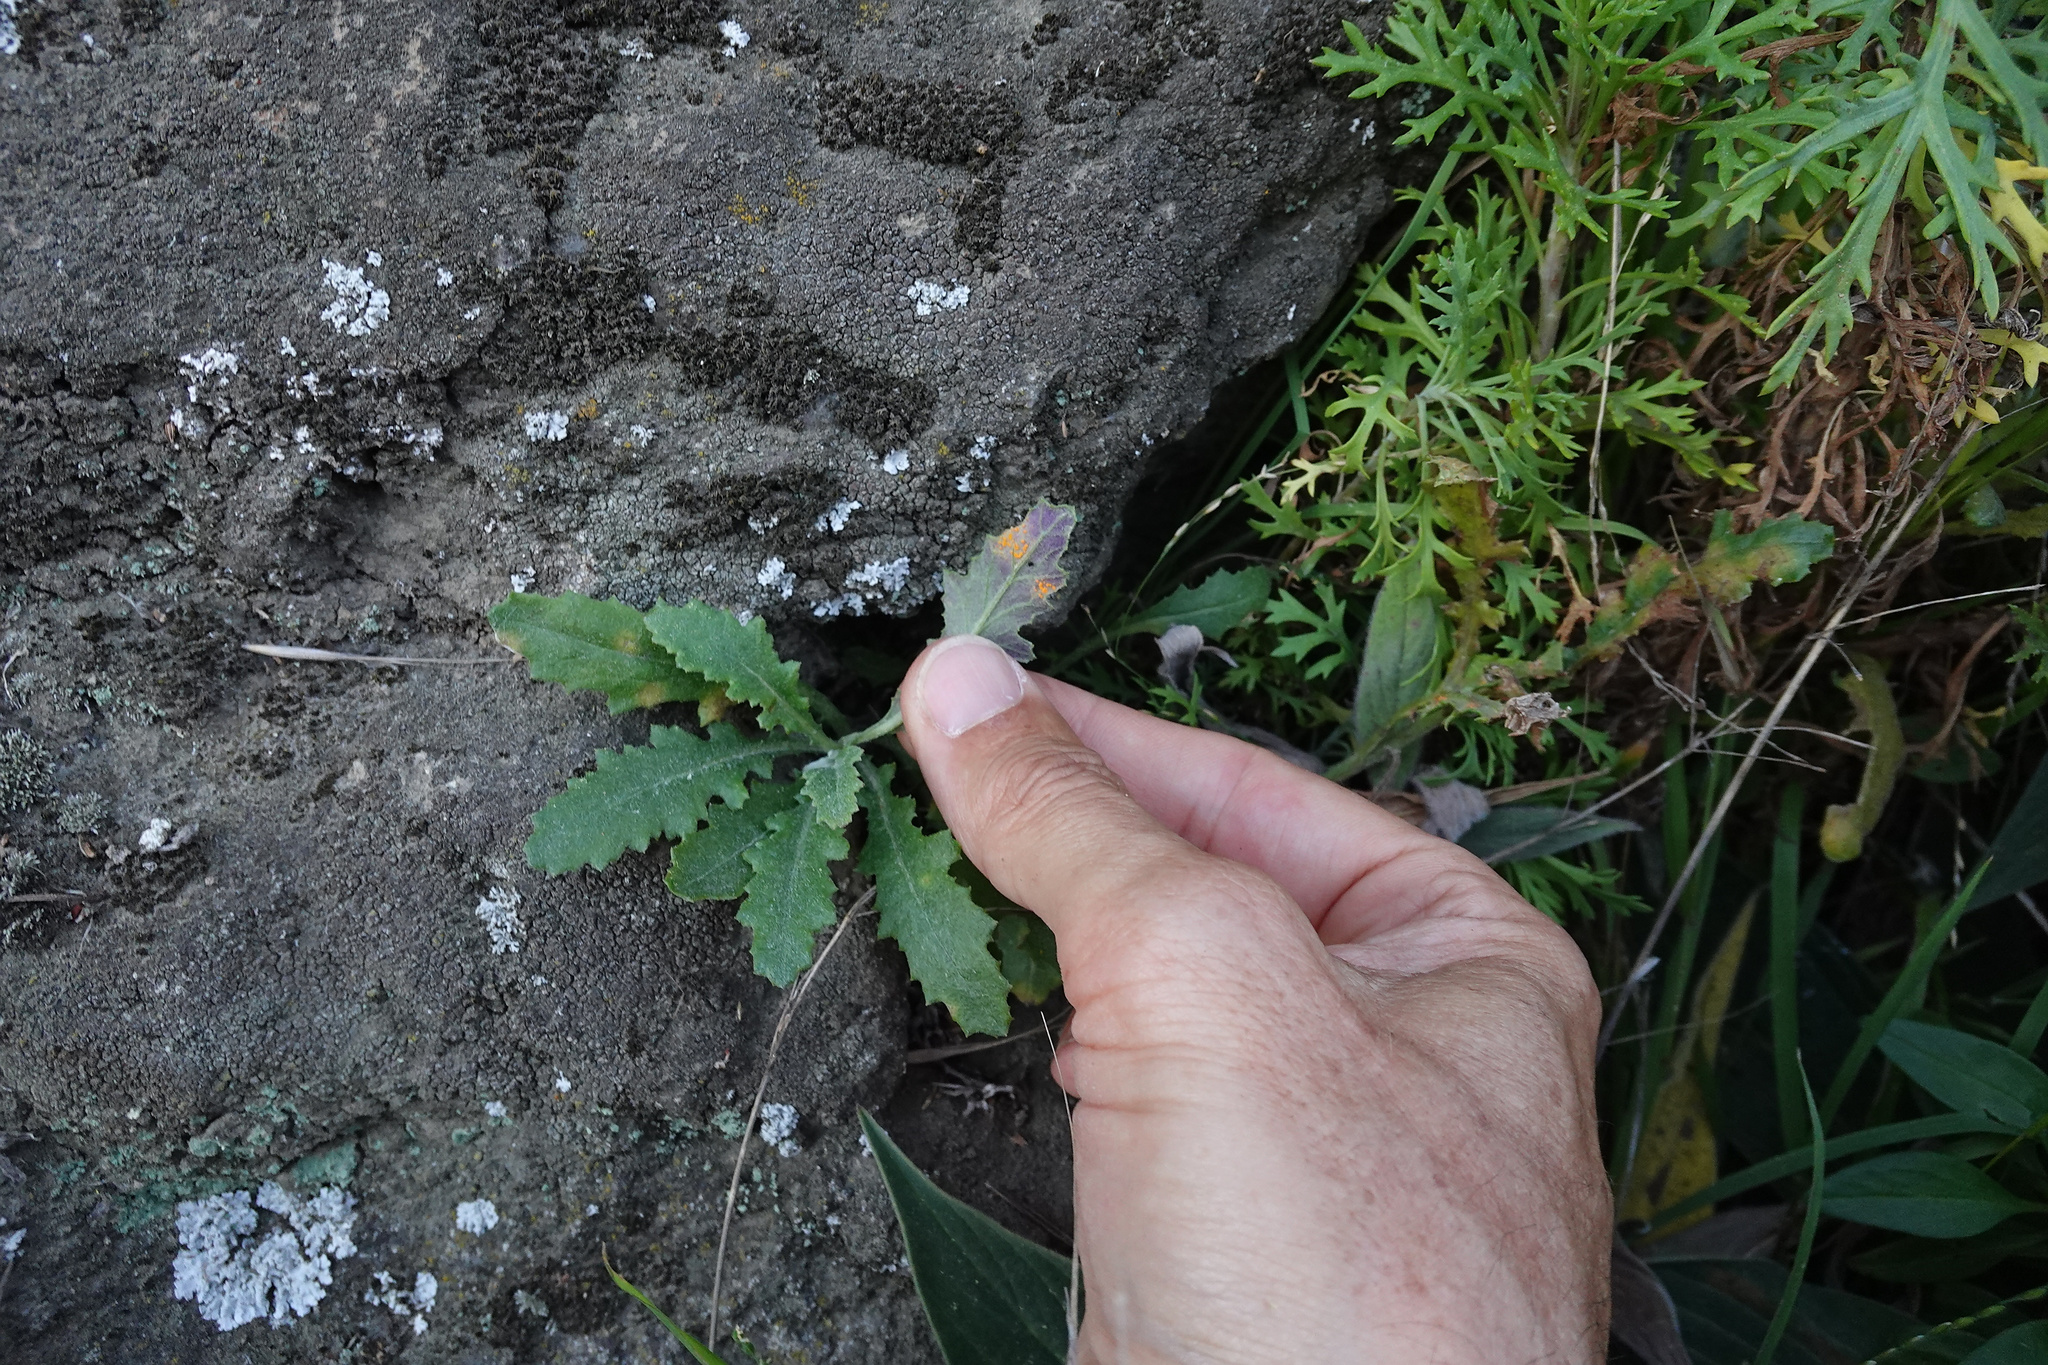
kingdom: Fungi
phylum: Basidiomycota
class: Pucciniomycetes
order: Pucciniales
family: Coleosporiaceae
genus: Coleosporium
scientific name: Coleosporium tussilaginis
